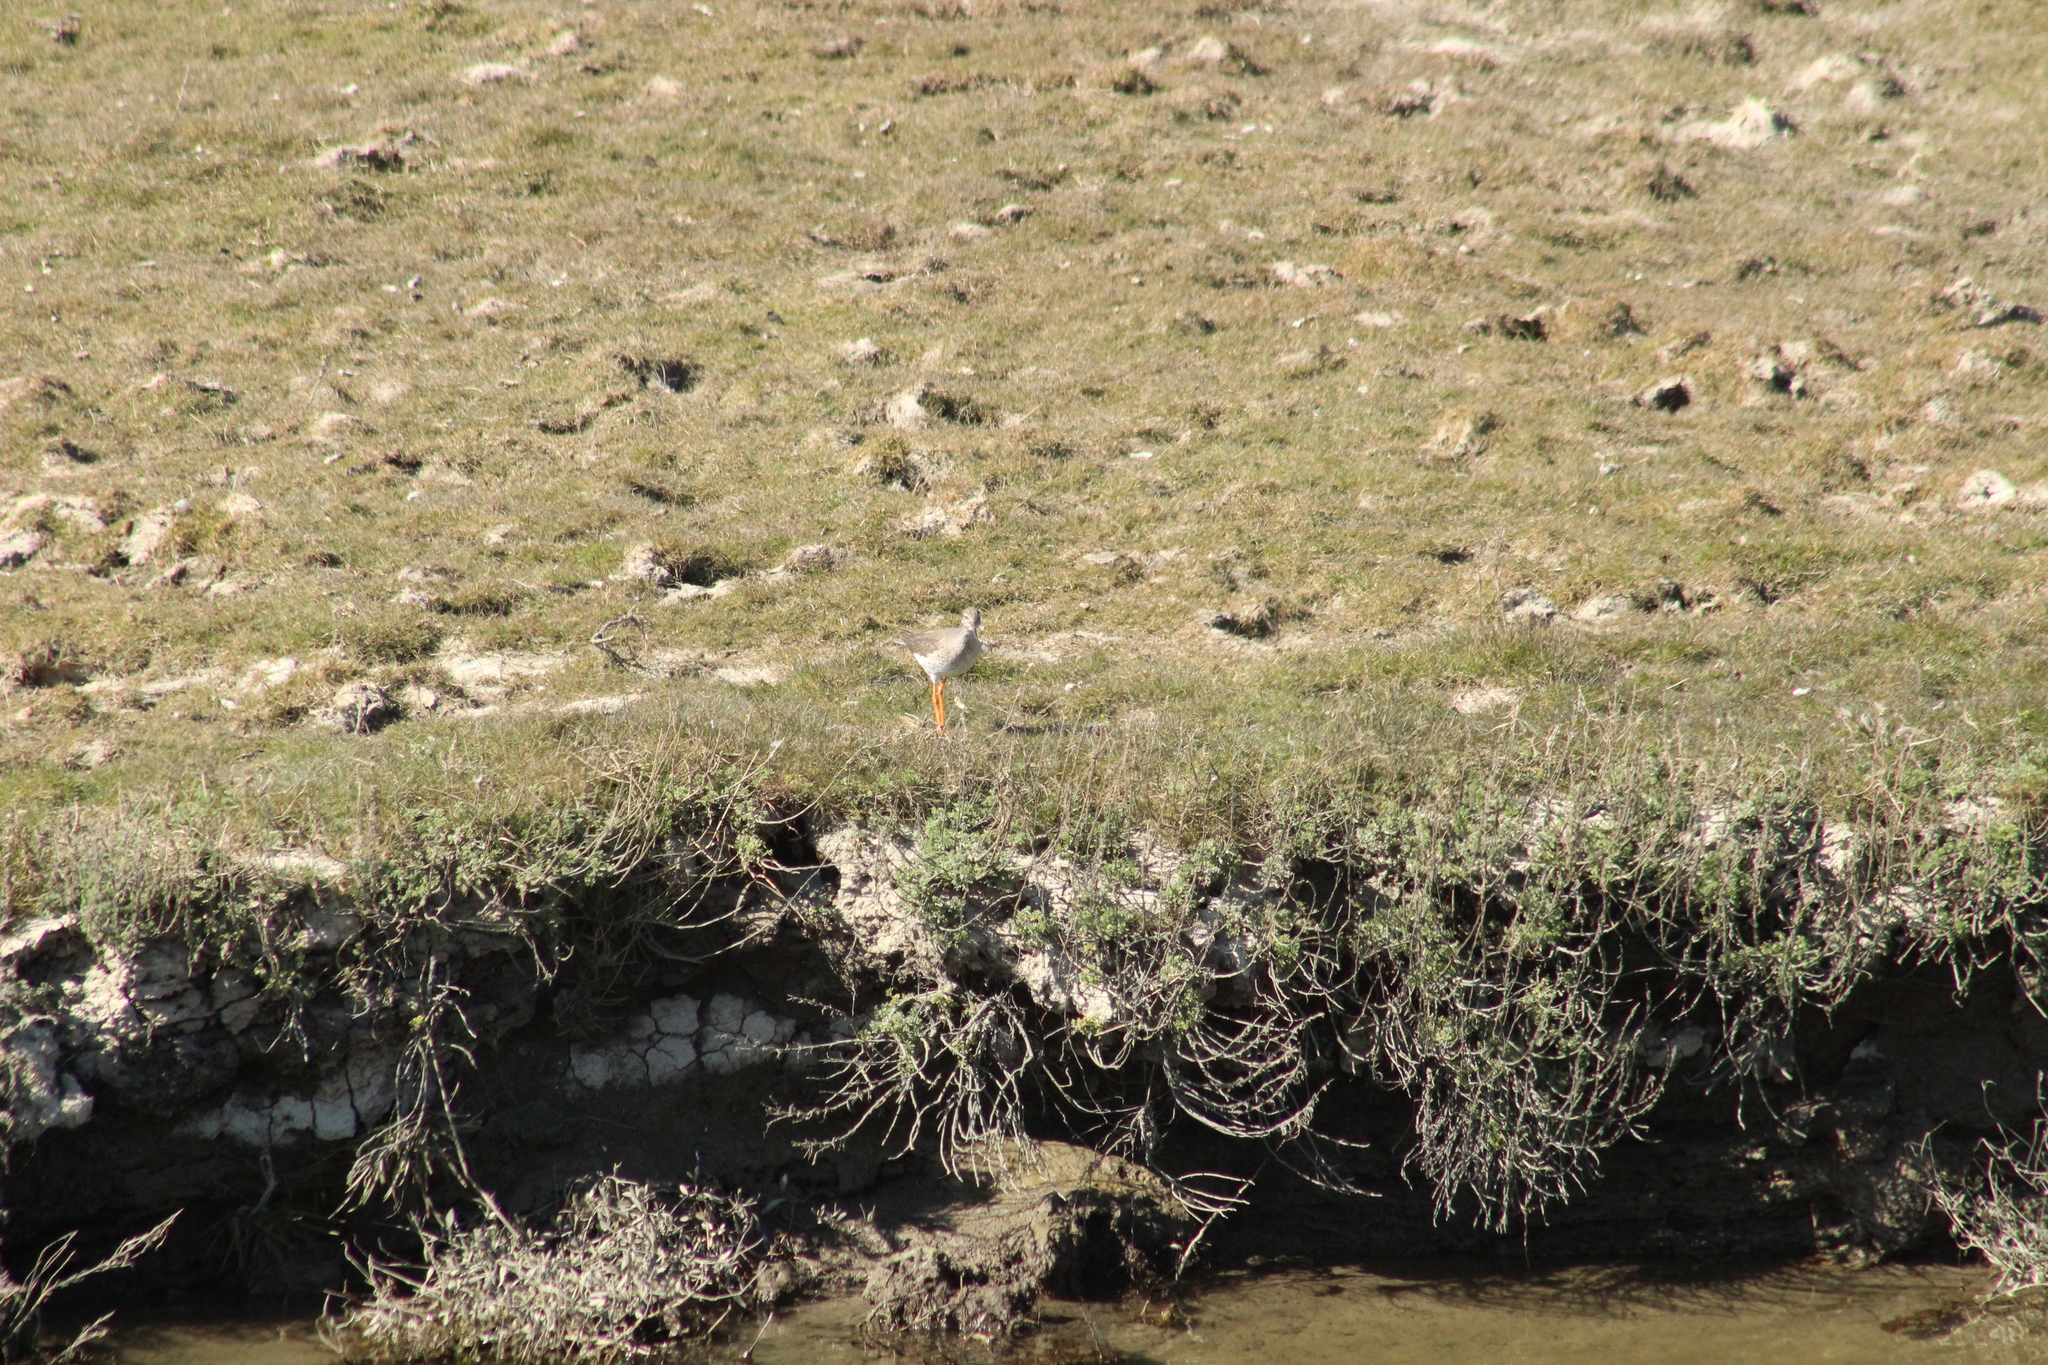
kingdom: Animalia
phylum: Chordata
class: Aves
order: Charadriiformes
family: Scolopacidae
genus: Tringa
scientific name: Tringa totanus
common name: Common redshank
